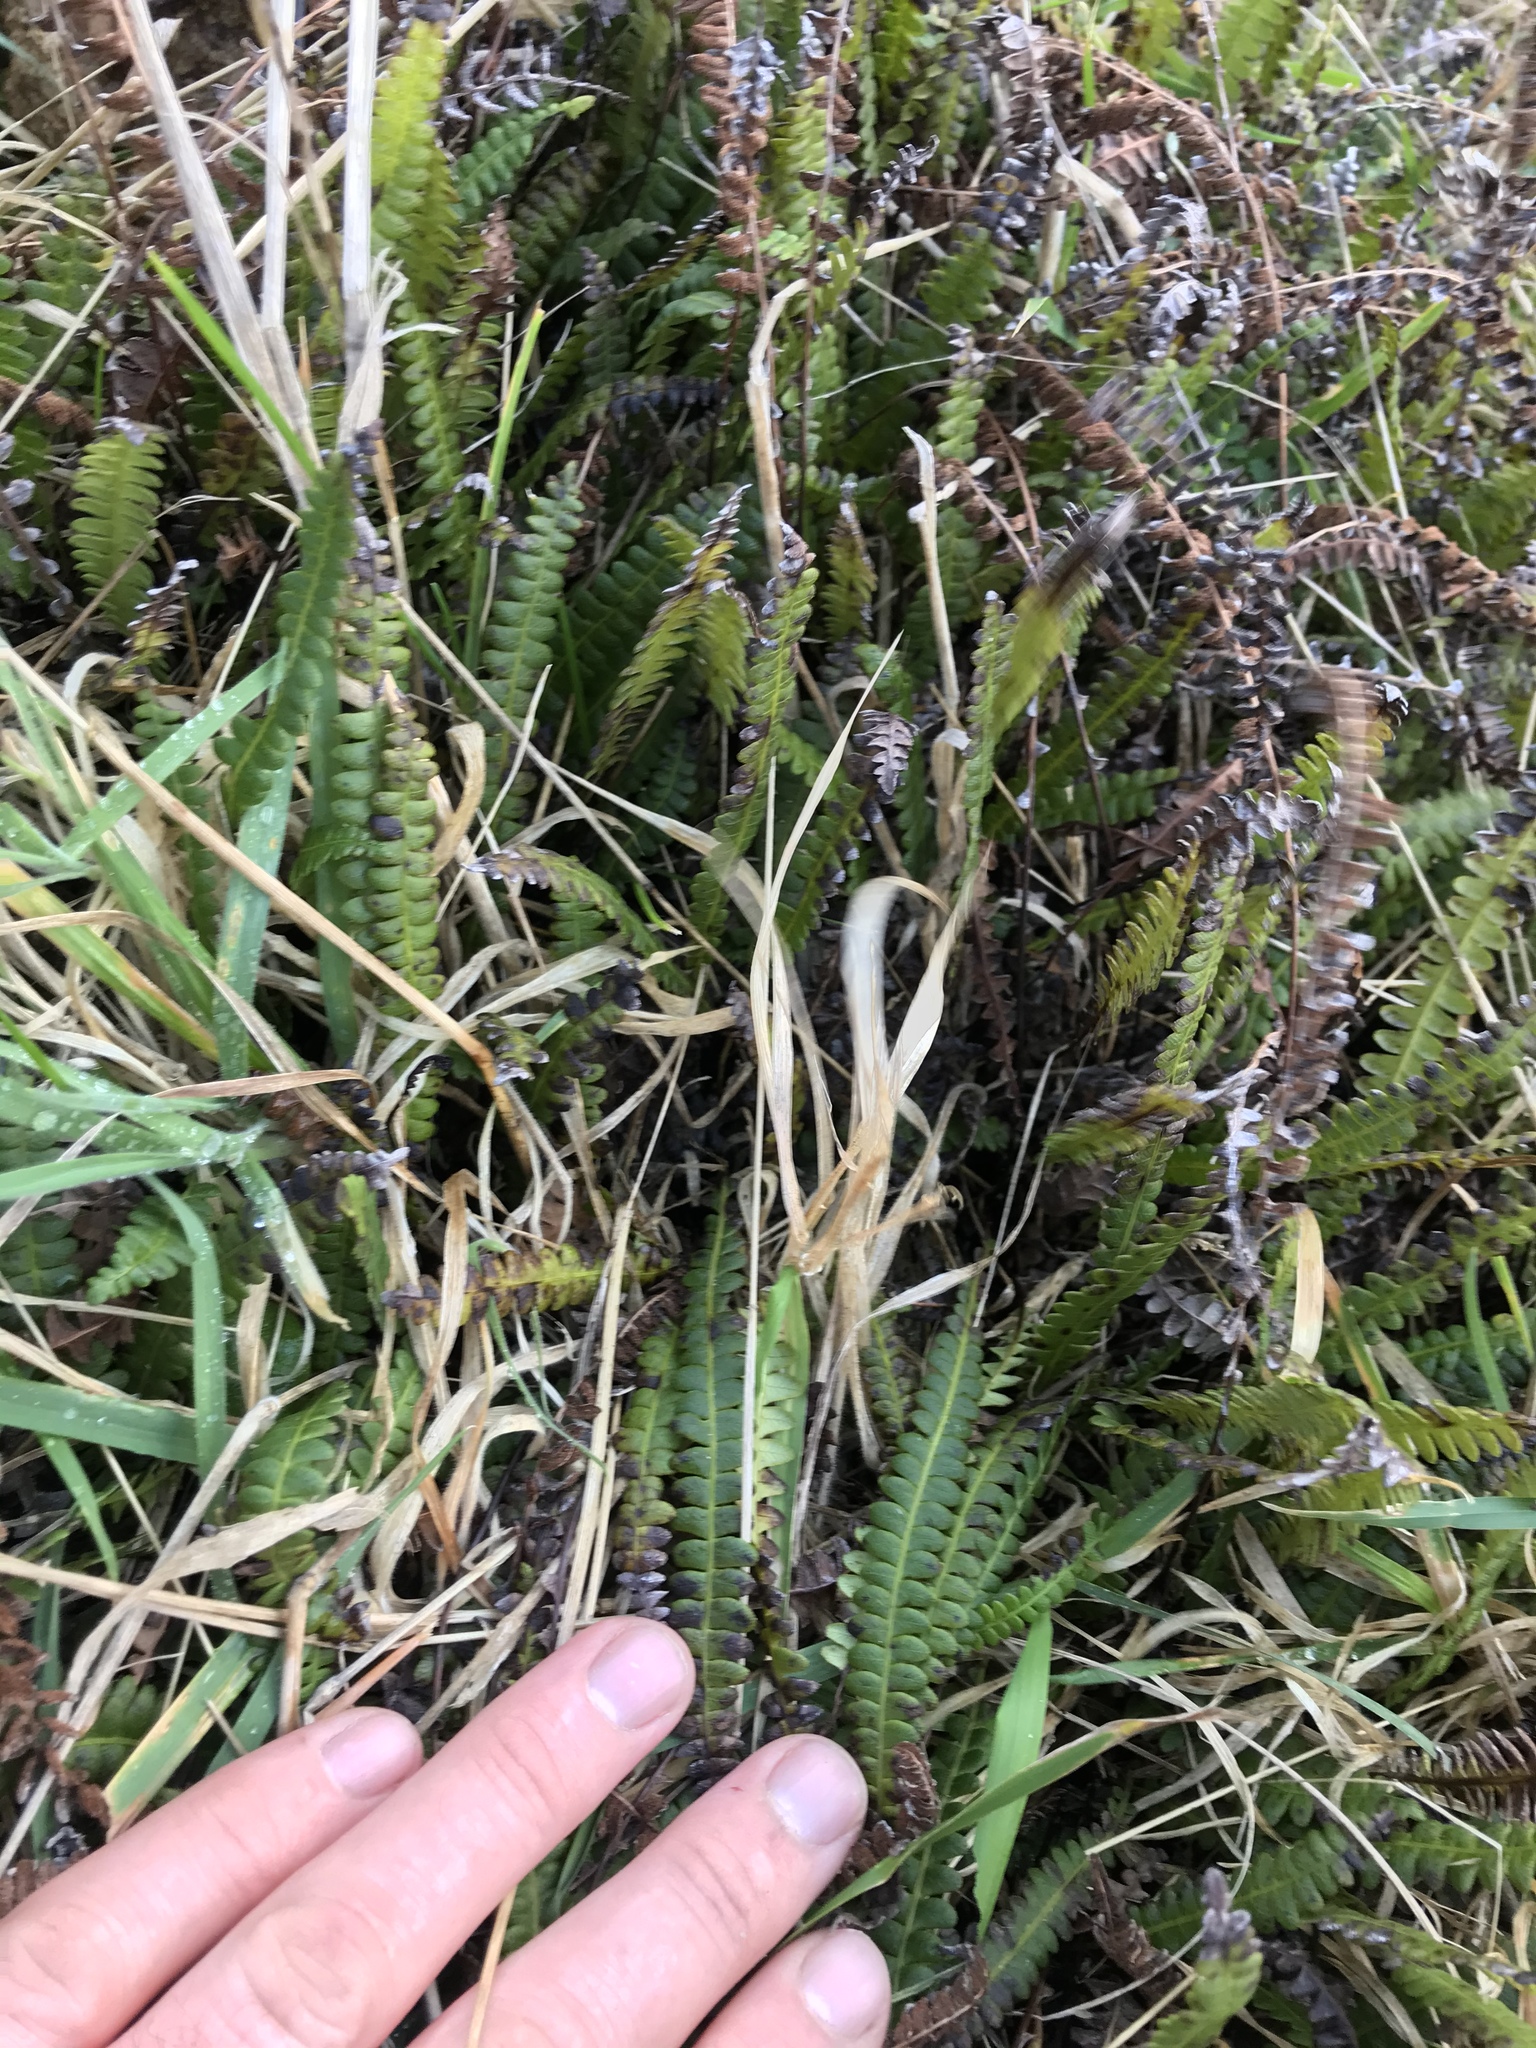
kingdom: Plantae
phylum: Tracheophyta
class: Polypodiopsida
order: Polypodiales
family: Blechnaceae
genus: Austroblechnum
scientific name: Austroblechnum penna-marina
